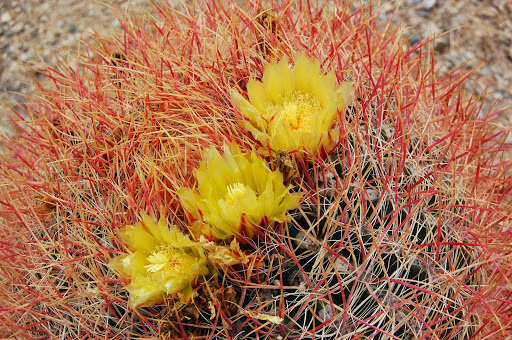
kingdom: Plantae
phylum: Tracheophyta
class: Magnoliopsida
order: Caryophyllales
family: Cactaceae
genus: Ferocactus
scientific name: Ferocactus cylindraceus
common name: California barrel cactus
